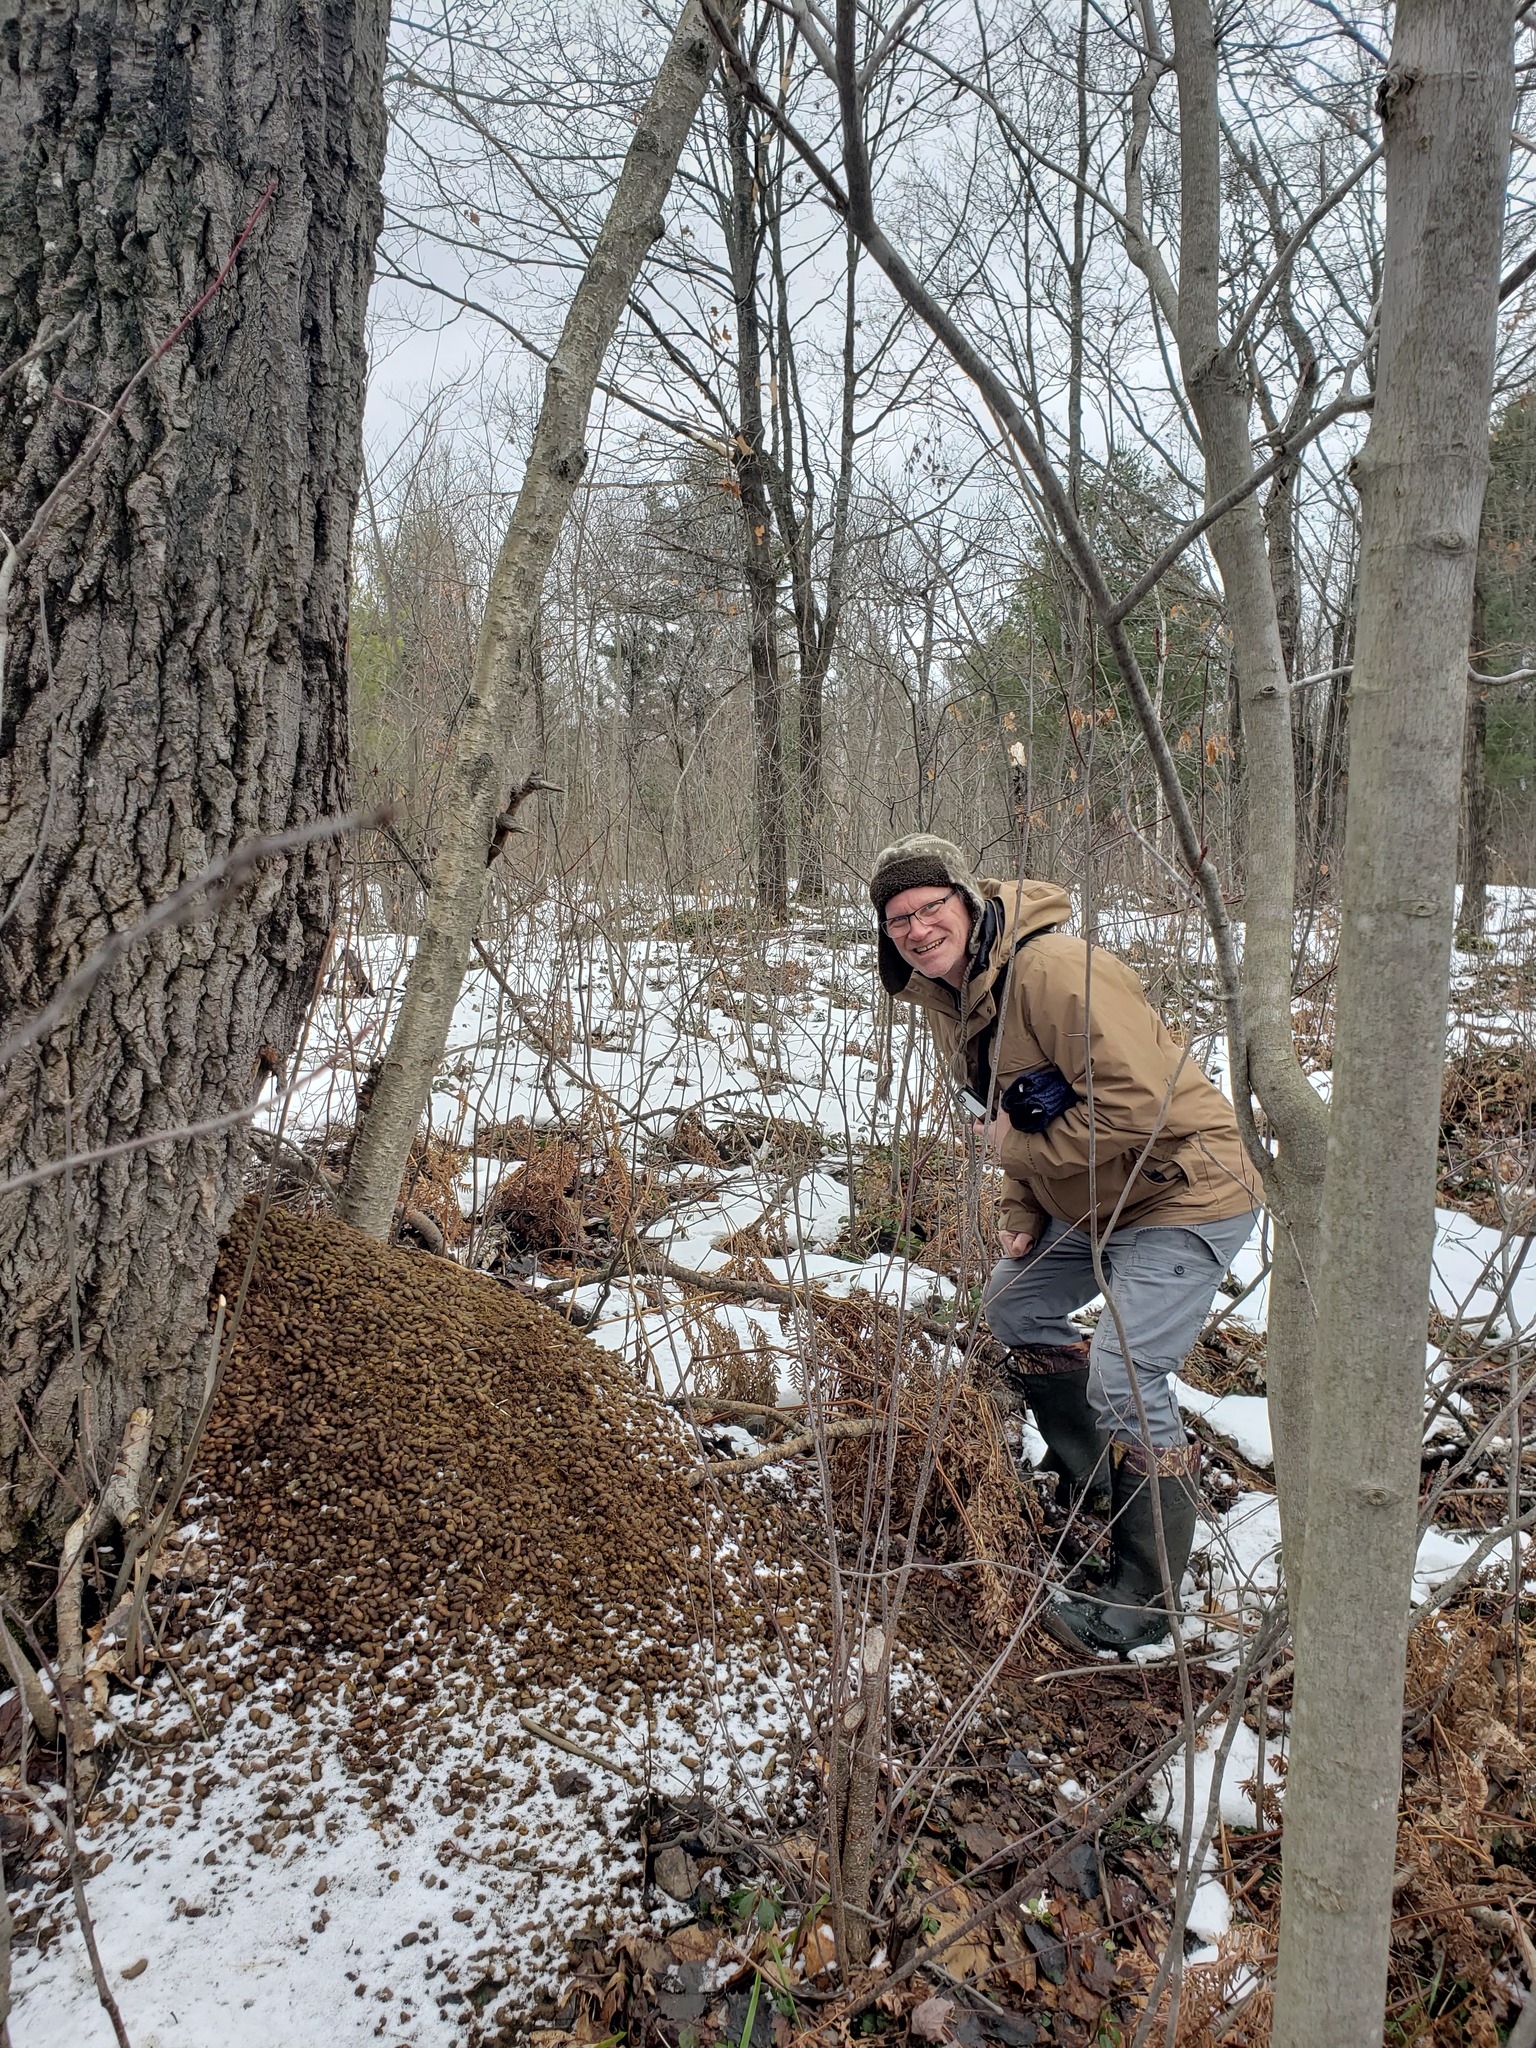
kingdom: Animalia
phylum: Chordata
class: Mammalia
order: Rodentia
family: Erethizontidae
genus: Erethizon
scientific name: Erethizon dorsatus
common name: North american porcupine
